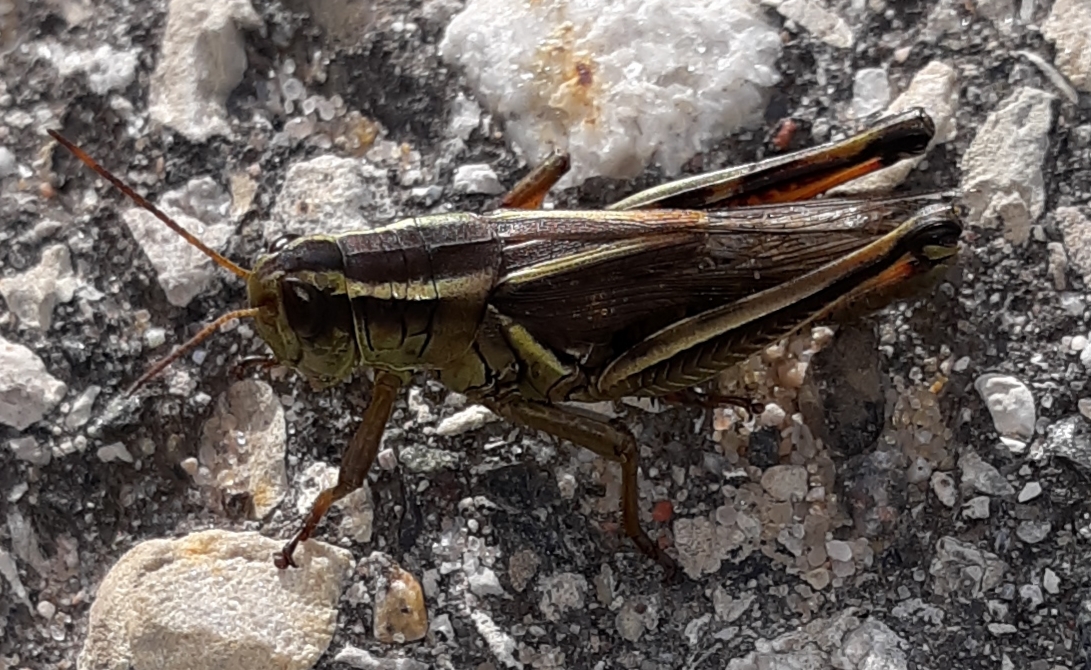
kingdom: Animalia
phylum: Arthropoda
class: Insecta
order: Orthoptera
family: Acrididae
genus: Melanoplus
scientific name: Melanoplus bivittatus
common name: Two-striped grasshopper
